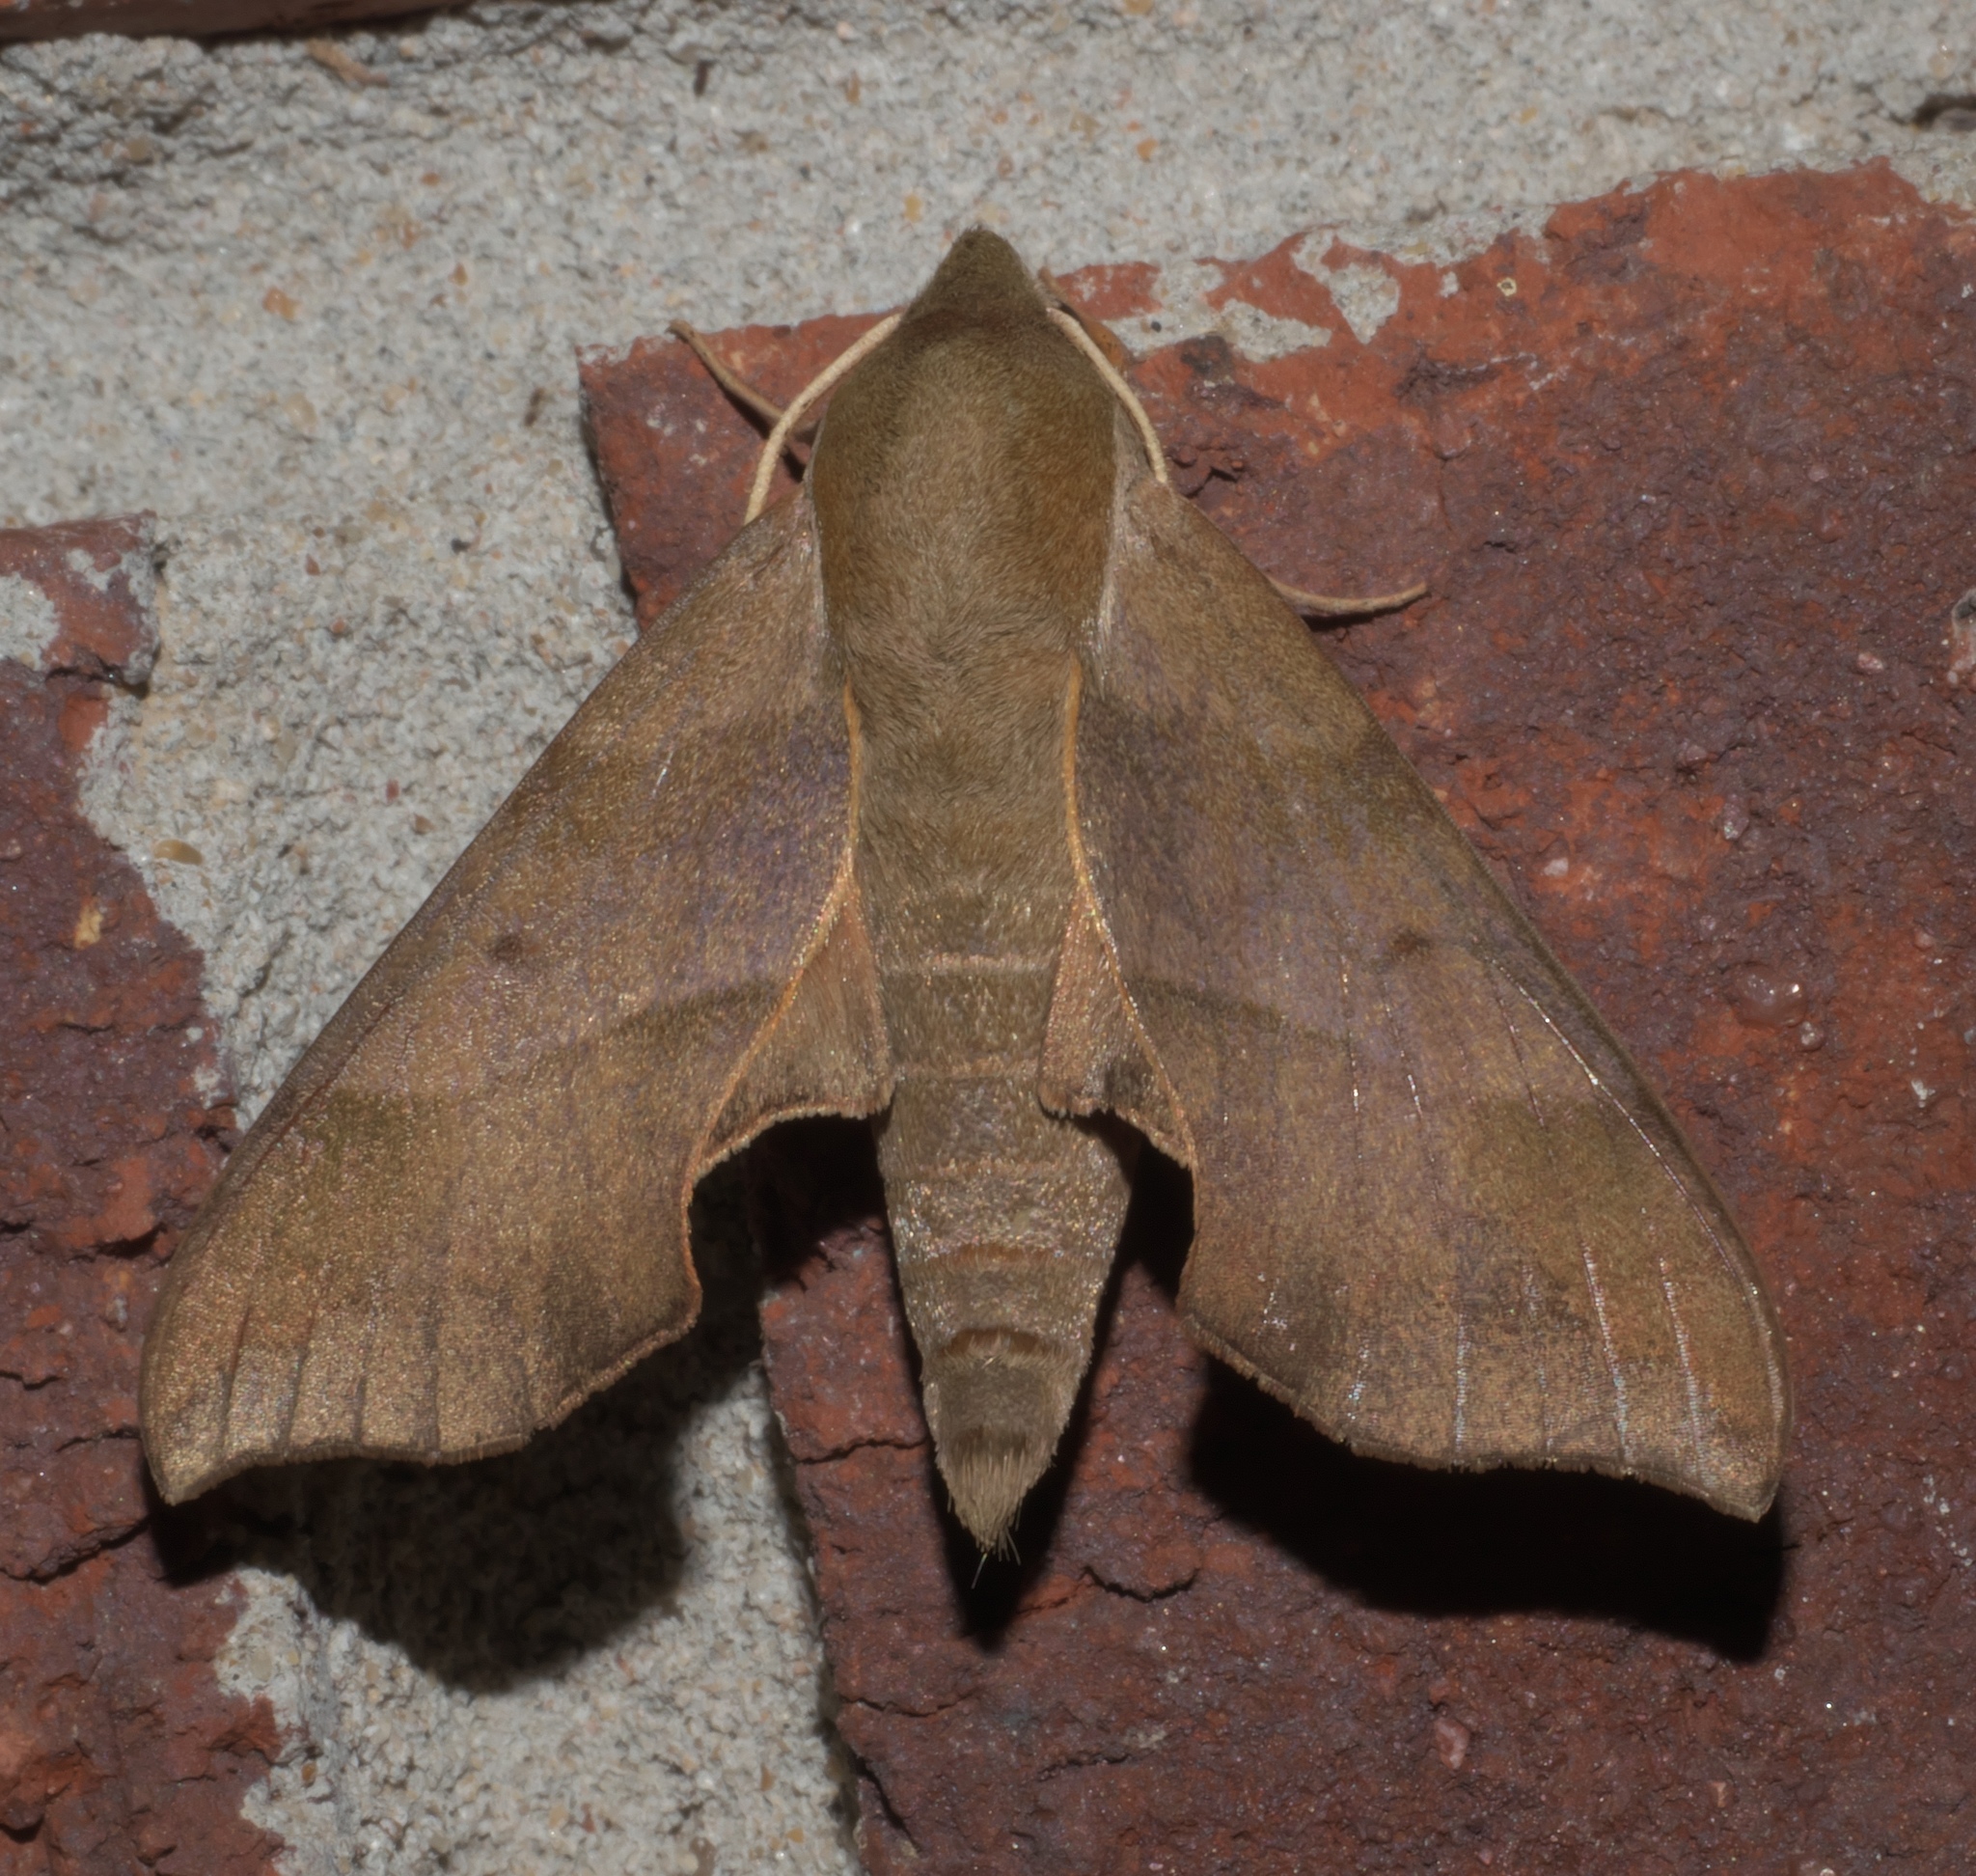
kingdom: Animalia
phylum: Arthropoda
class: Insecta
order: Lepidoptera
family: Sphingidae
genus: Darapsa
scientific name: Darapsa myron
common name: Hog sphinx
